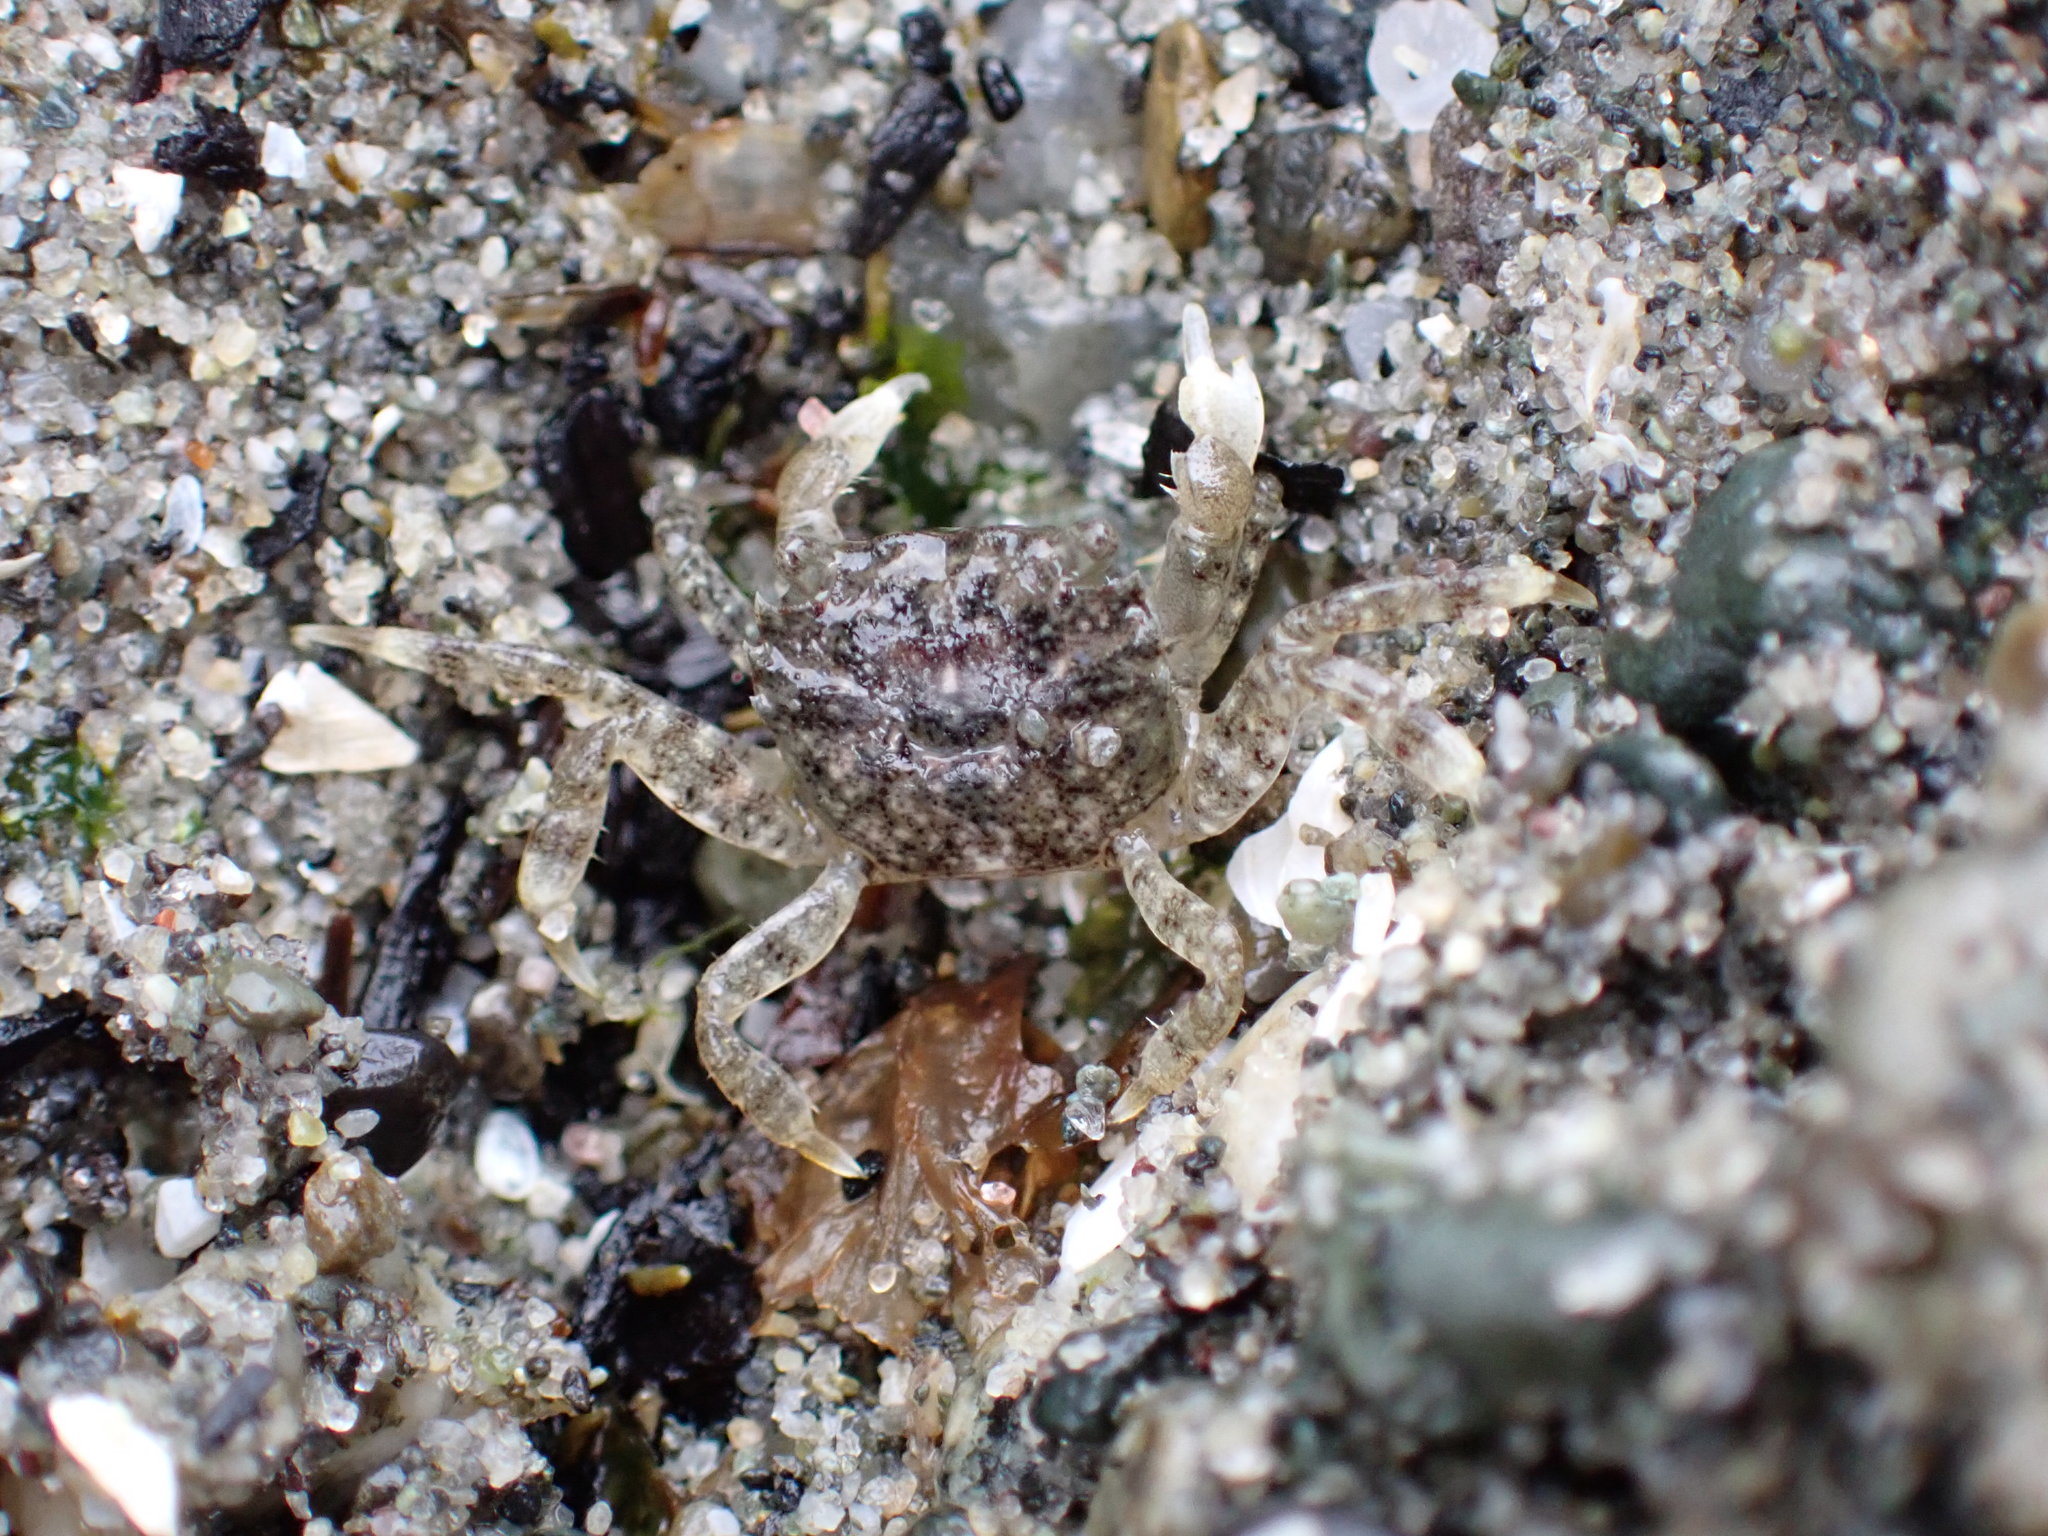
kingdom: Animalia
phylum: Arthropoda
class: Malacostraca
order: Decapoda
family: Varunidae
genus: Hemigrapsus
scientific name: Hemigrapsus oregonensis
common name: Yellow shore crab
